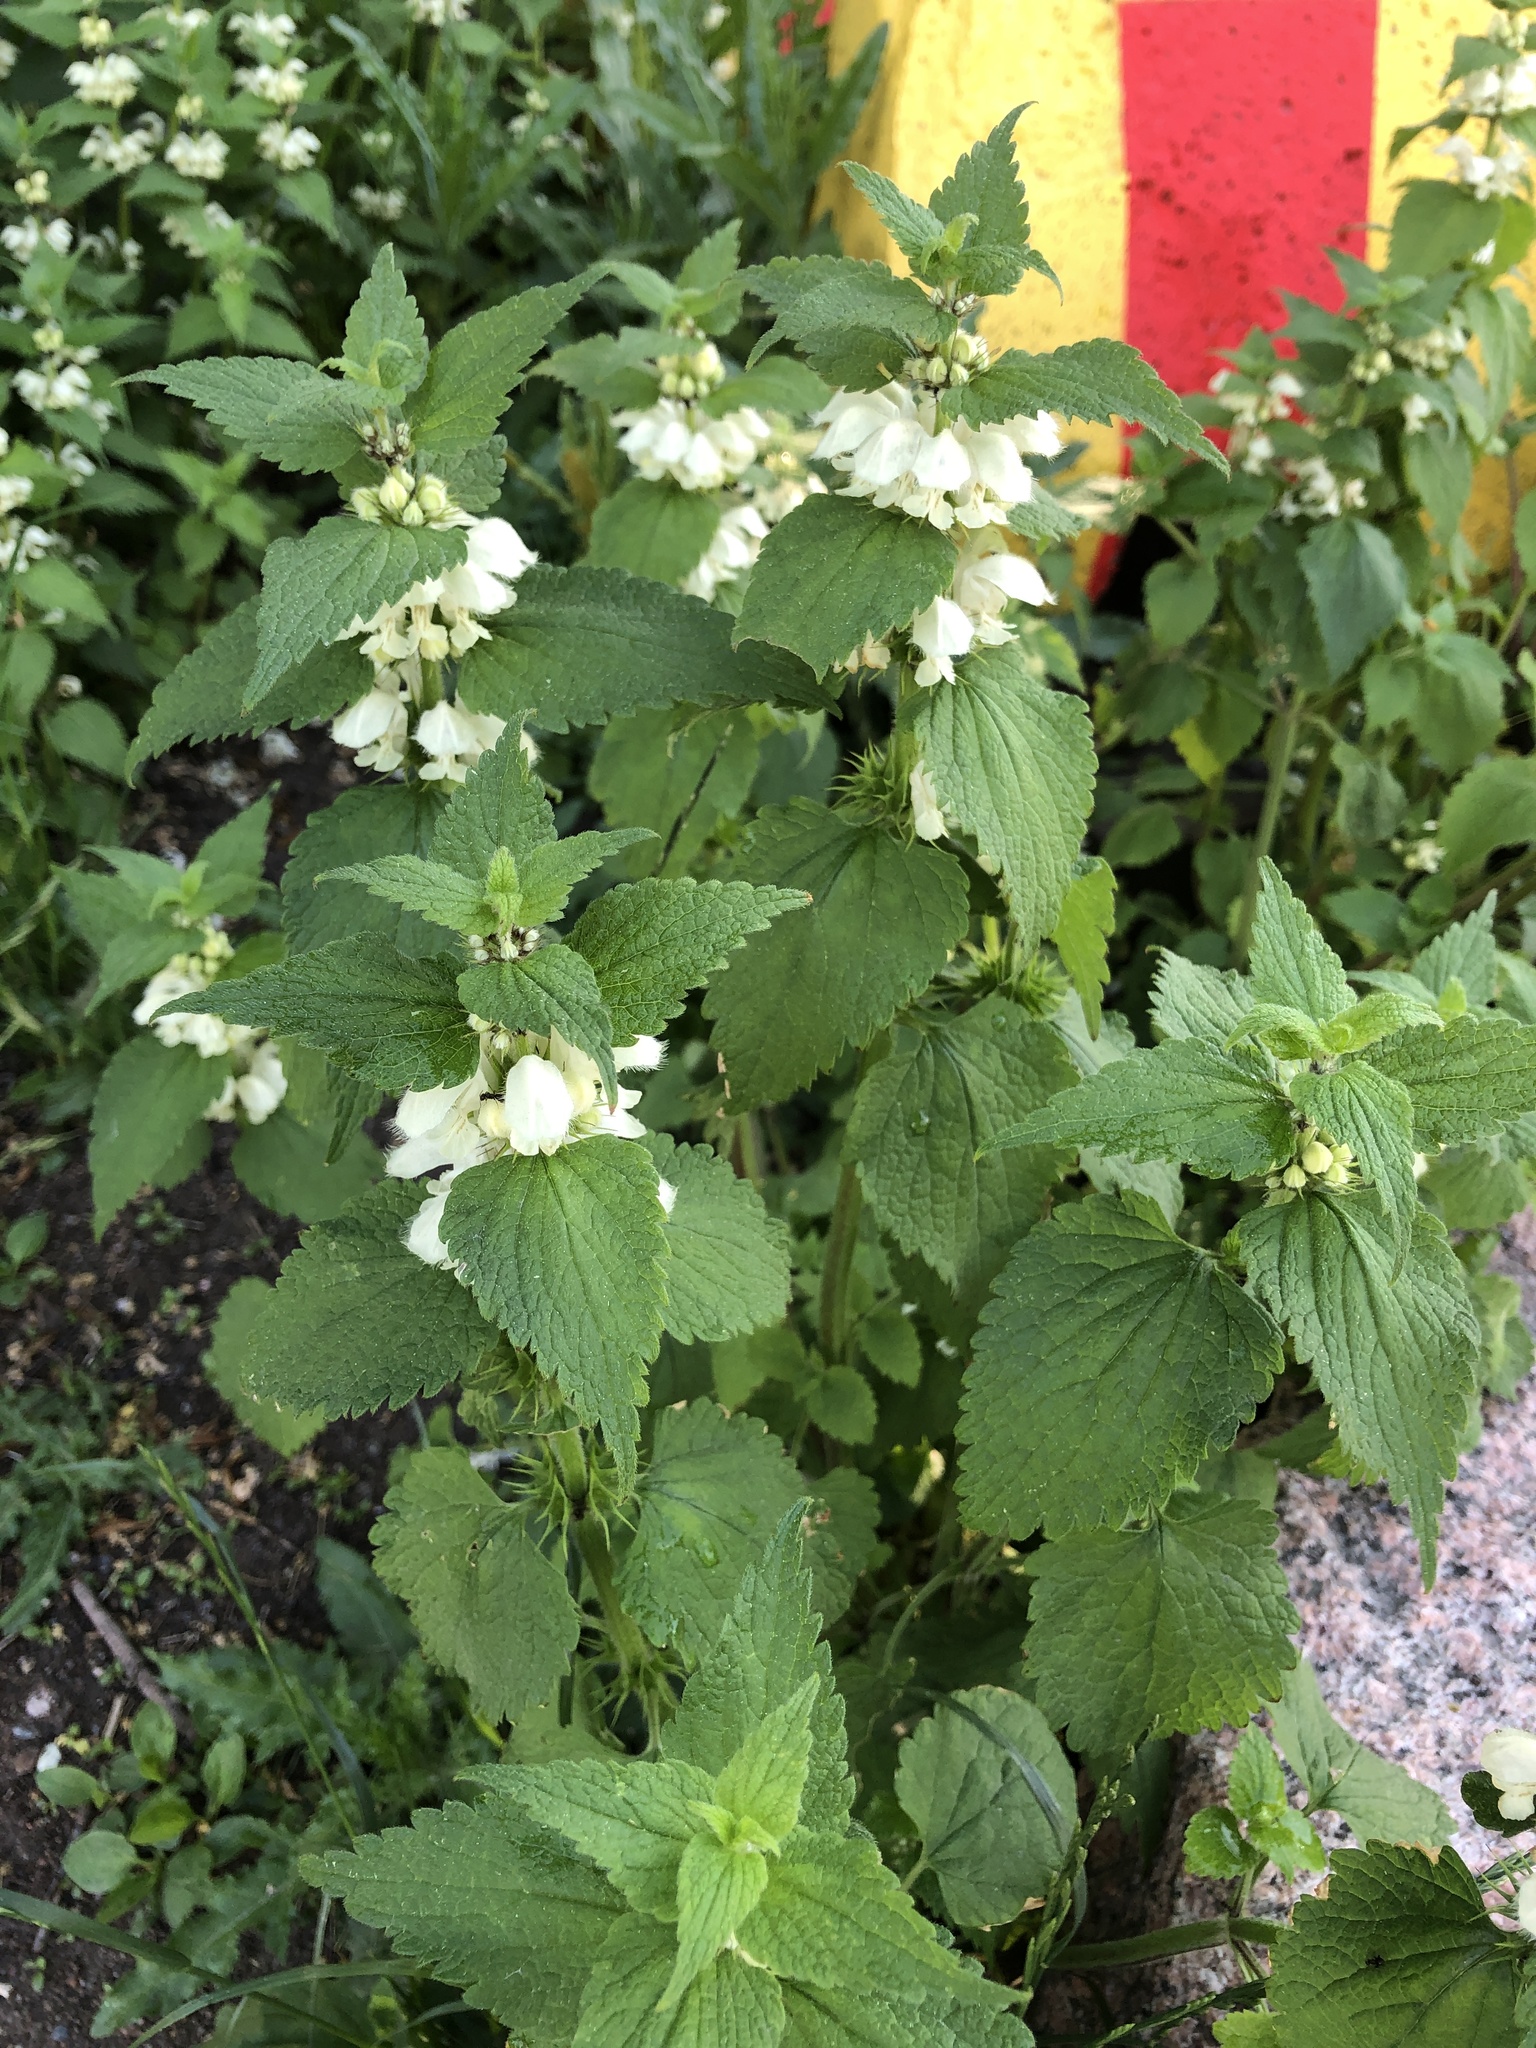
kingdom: Plantae
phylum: Tracheophyta
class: Magnoliopsida
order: Lamiales
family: Lamiaceae
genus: Lamium
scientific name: Lamium album
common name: White dead-nettle
